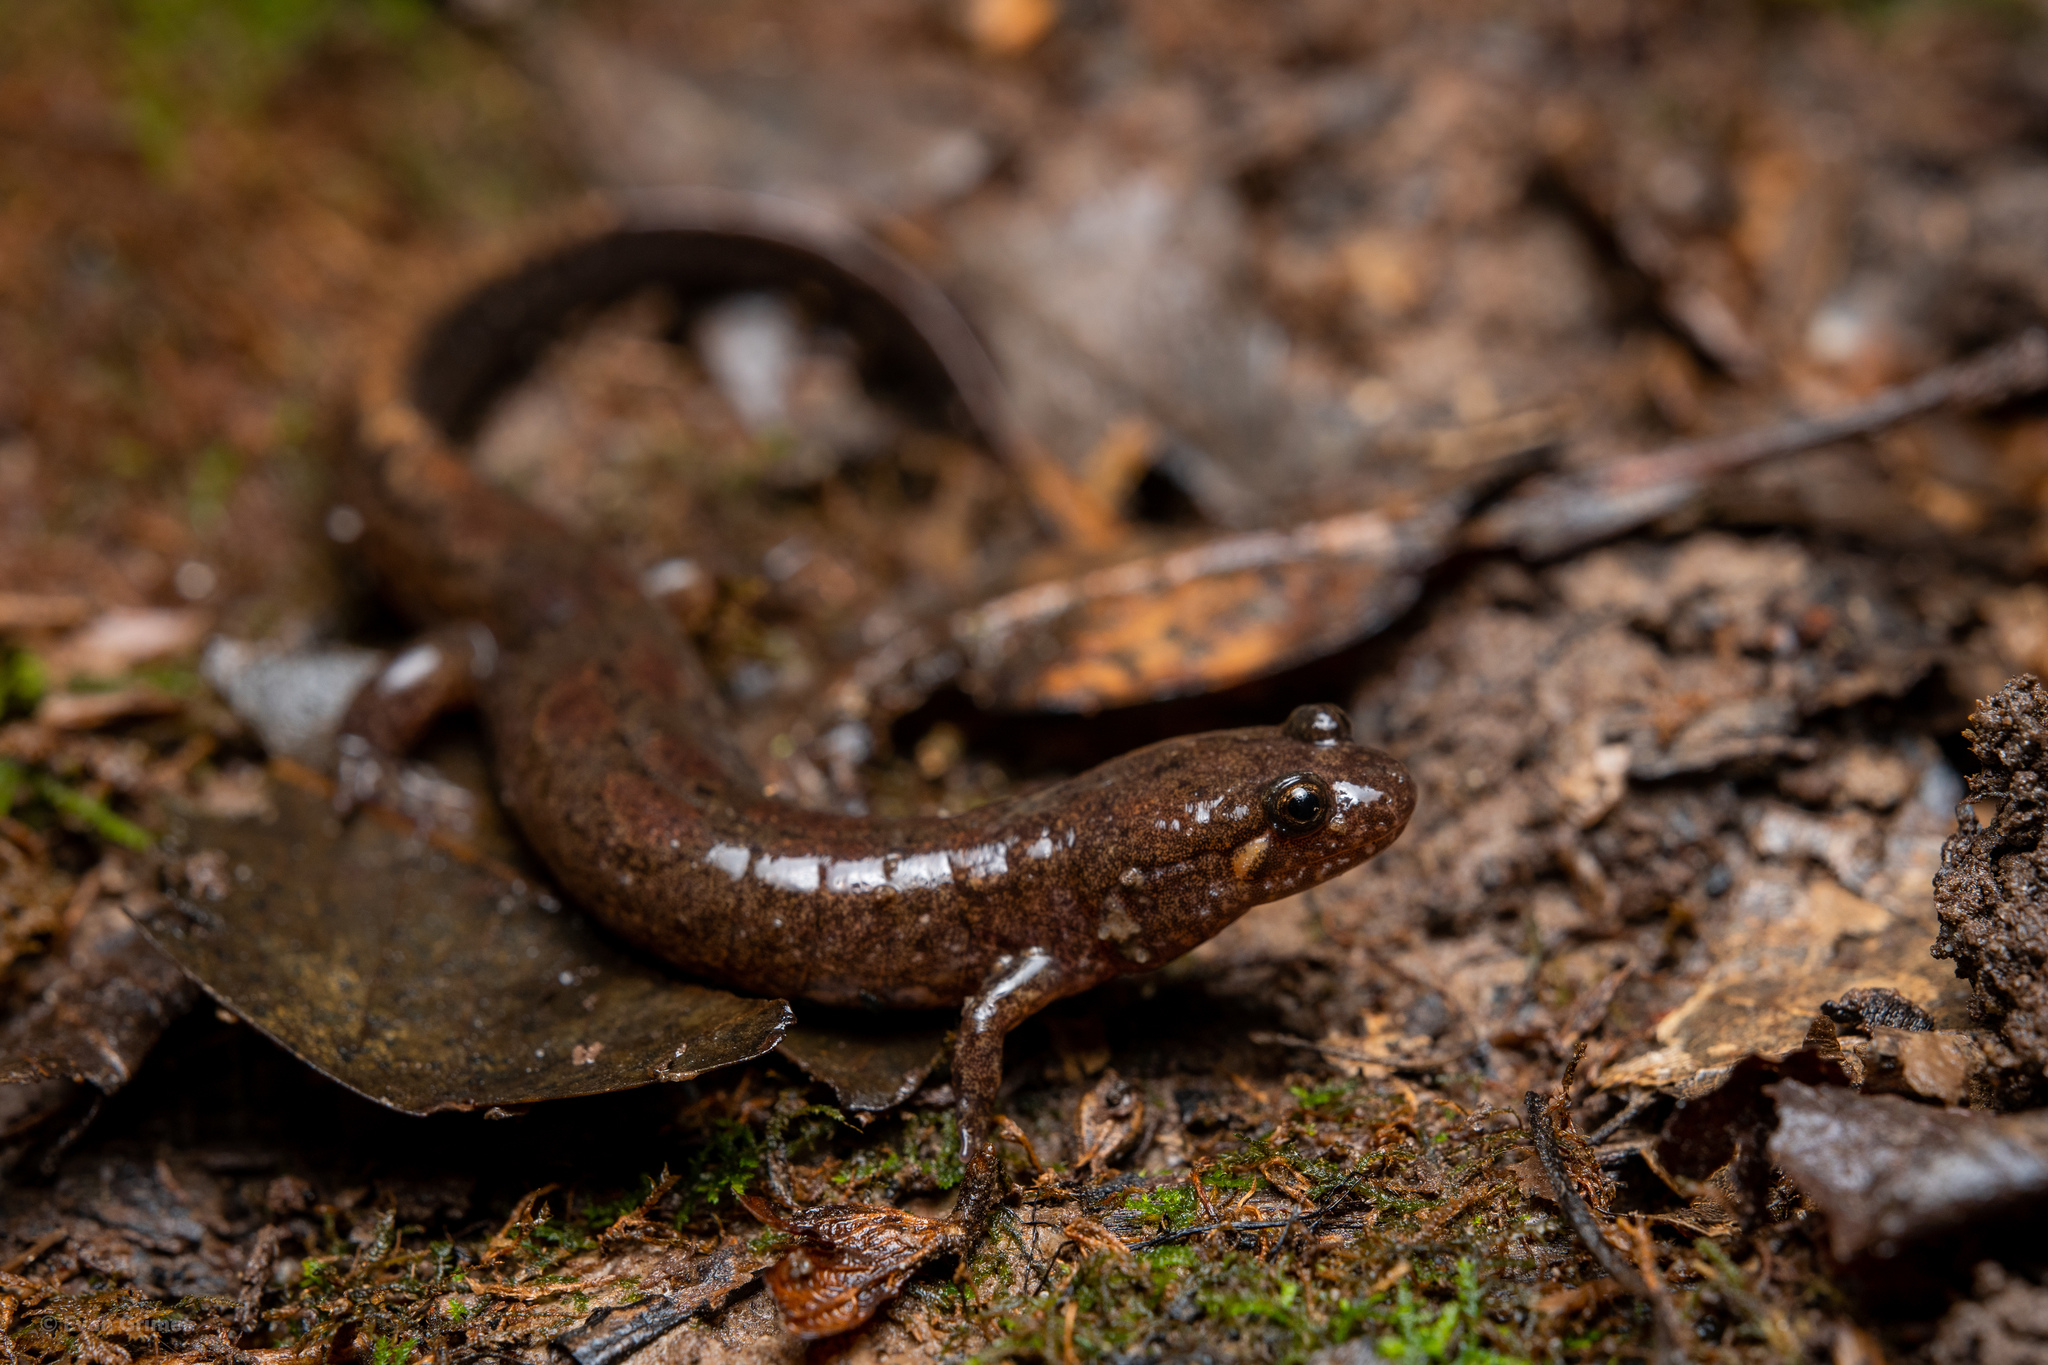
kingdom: Animalia
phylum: Chordata
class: Amphibia
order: Caudata
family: Plethodontidae
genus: Desmognathus
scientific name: Desmognathus conanti
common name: Spotted dusky salamander
